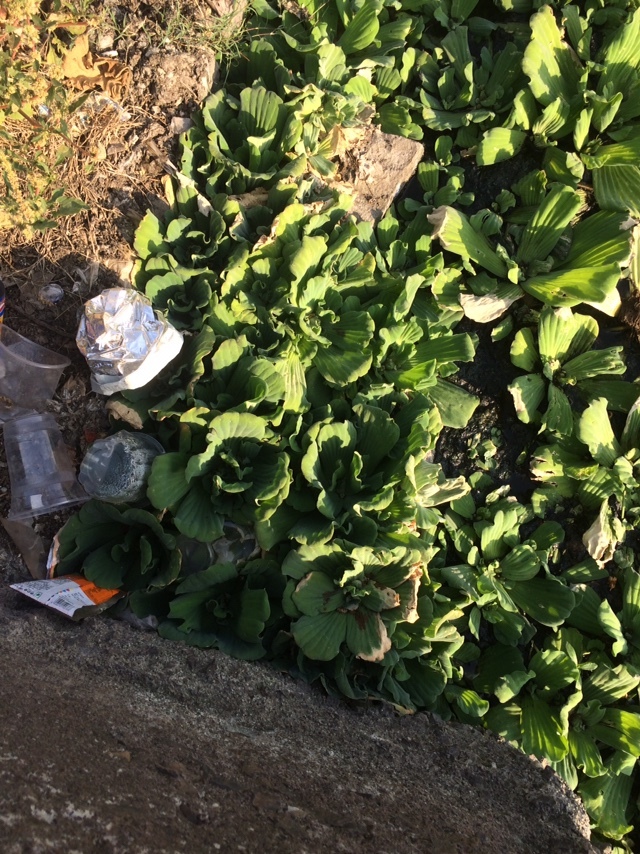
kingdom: Plantae
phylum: Tracheophyta
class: Liliopsida
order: Alismatales
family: Araceae
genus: Pistia
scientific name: Pistia stratiotes
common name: Water lettuce
